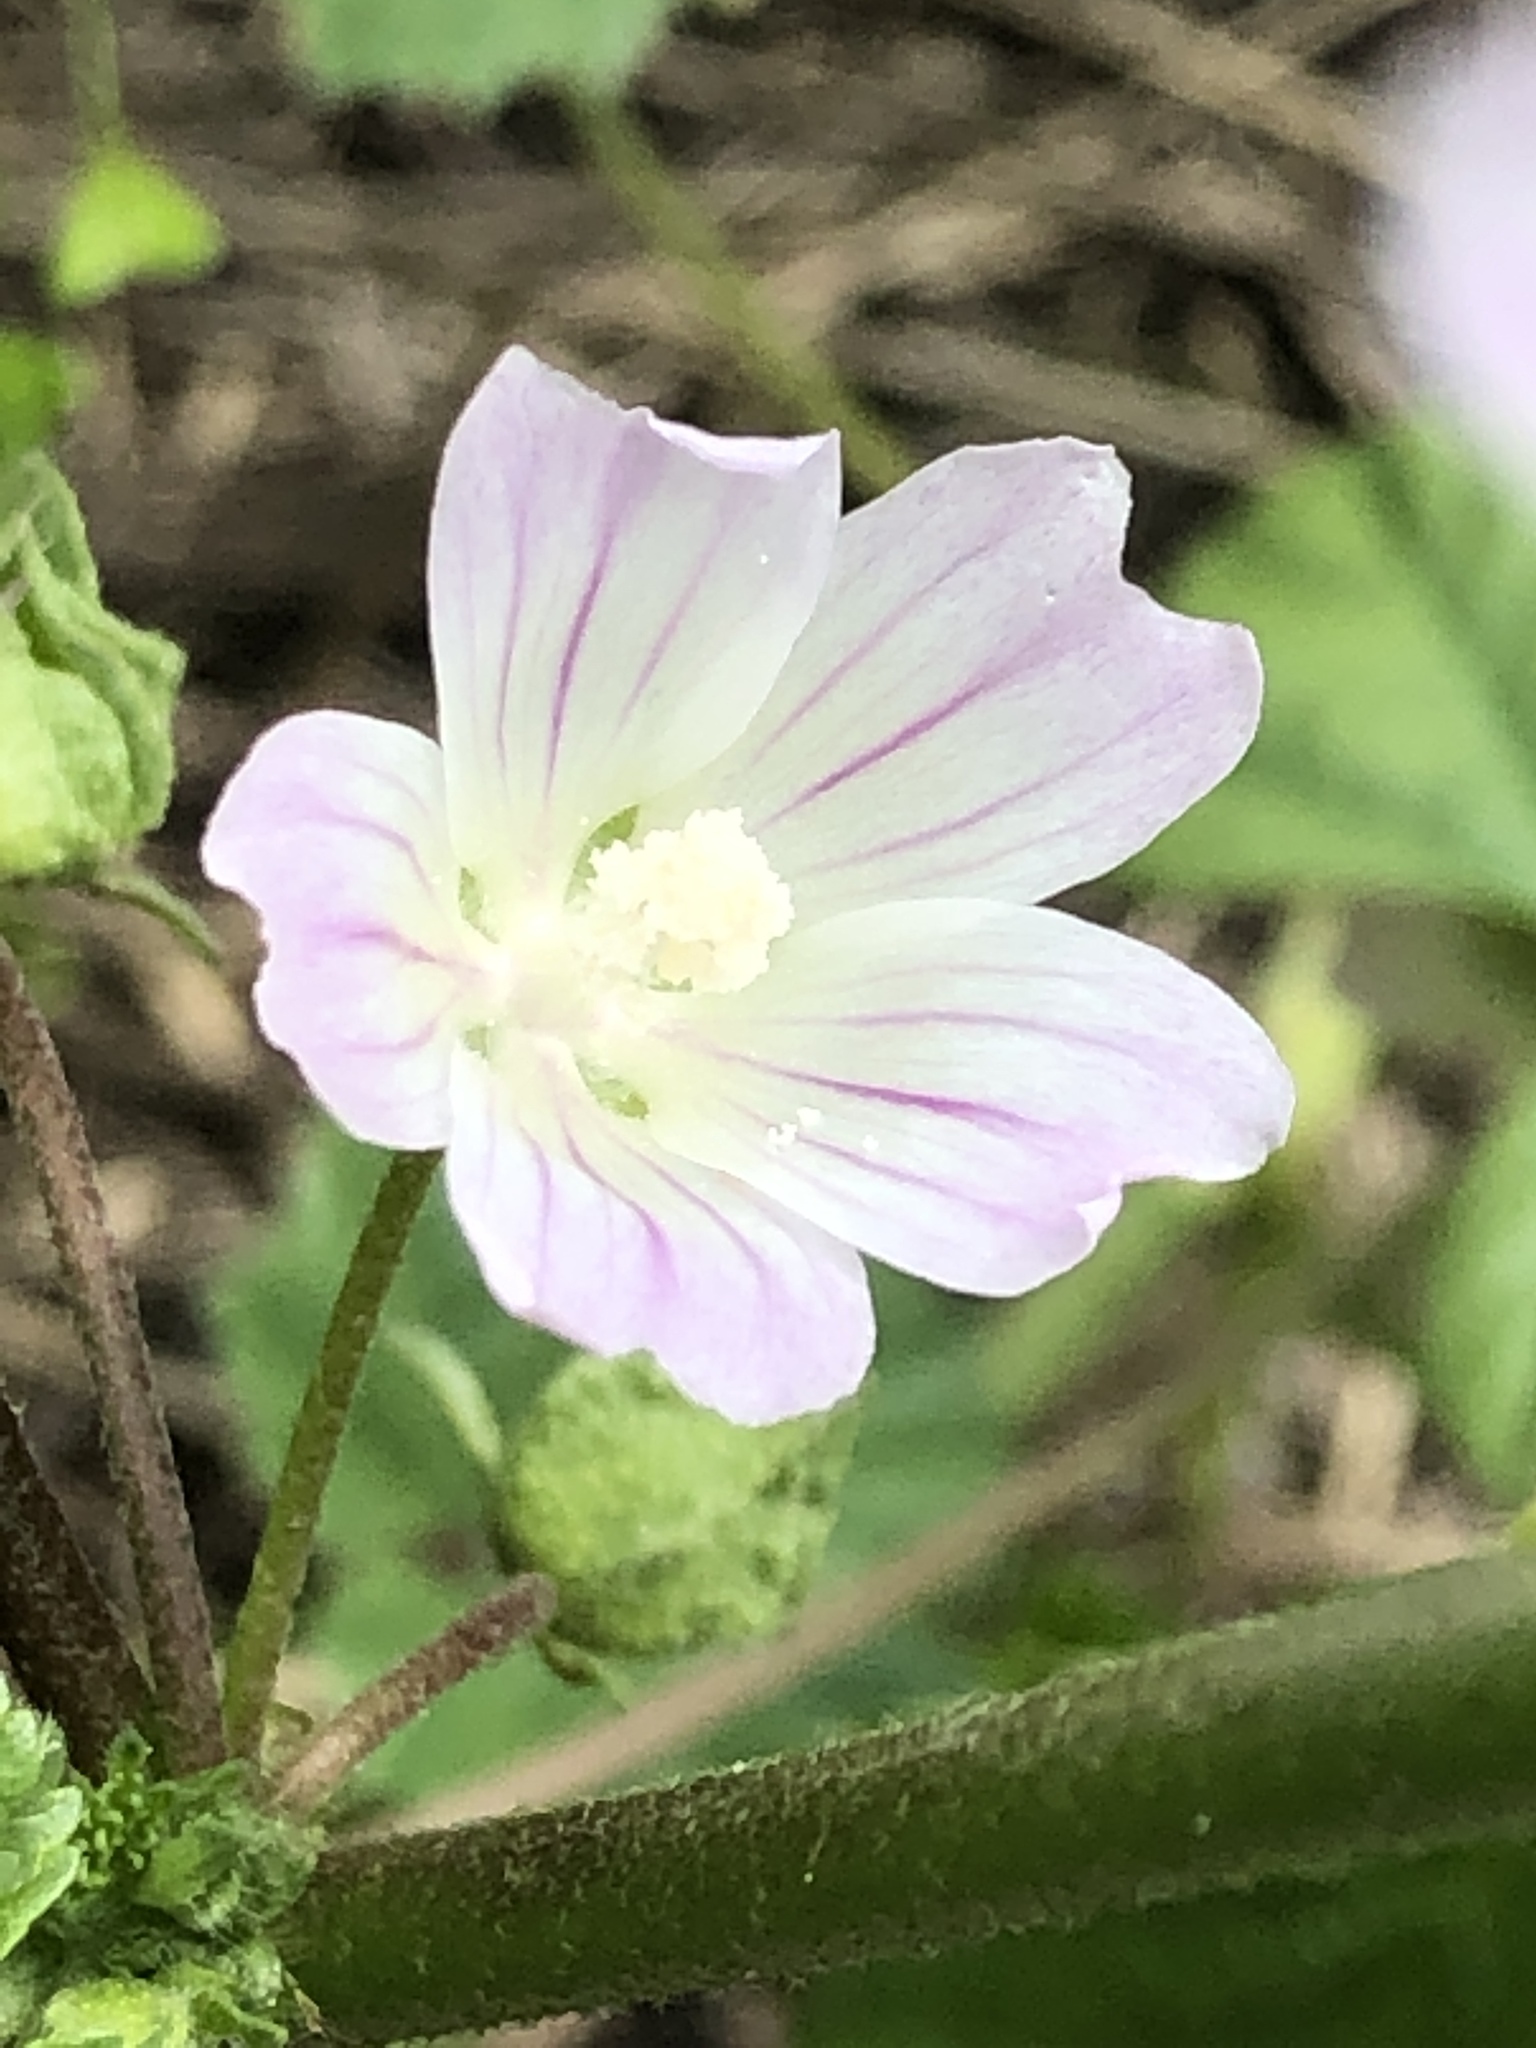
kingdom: Plantae
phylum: Tracheophyta
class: Magnoliopsida
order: Malvales
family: Malvaceae
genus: Malva
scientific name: Malva neglecta
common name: Common mallow
